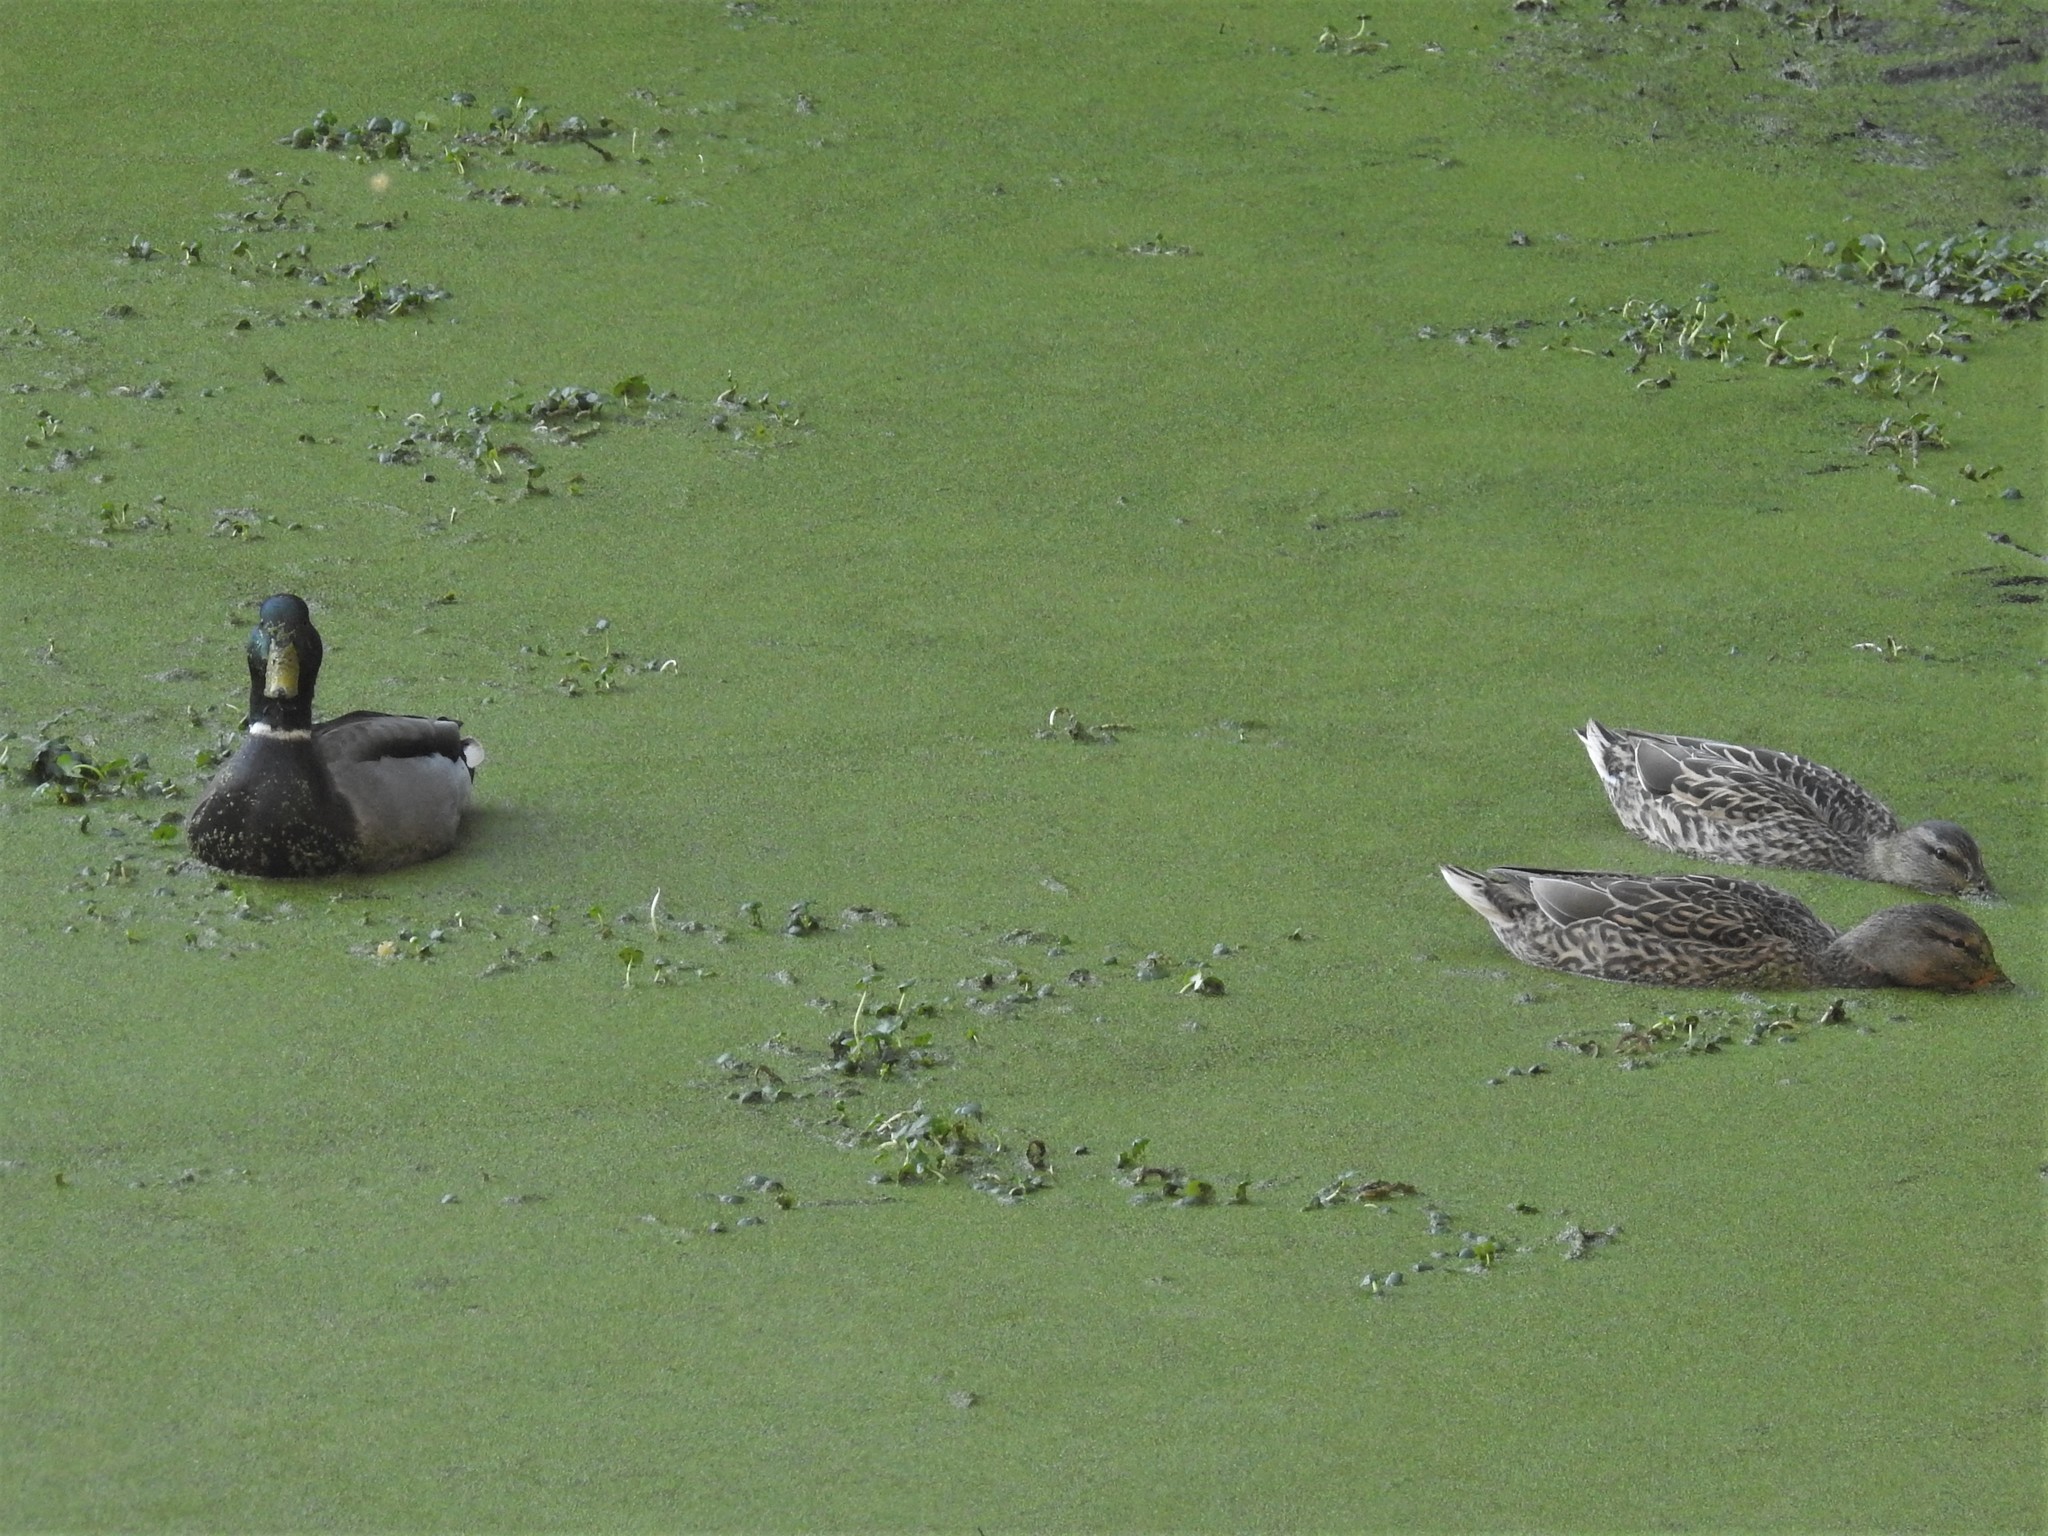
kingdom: Animalia
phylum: Chordata
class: Aves
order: Anseriformes
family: Anatidae
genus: Anas
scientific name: Anas platyrhynchos
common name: Mallard
